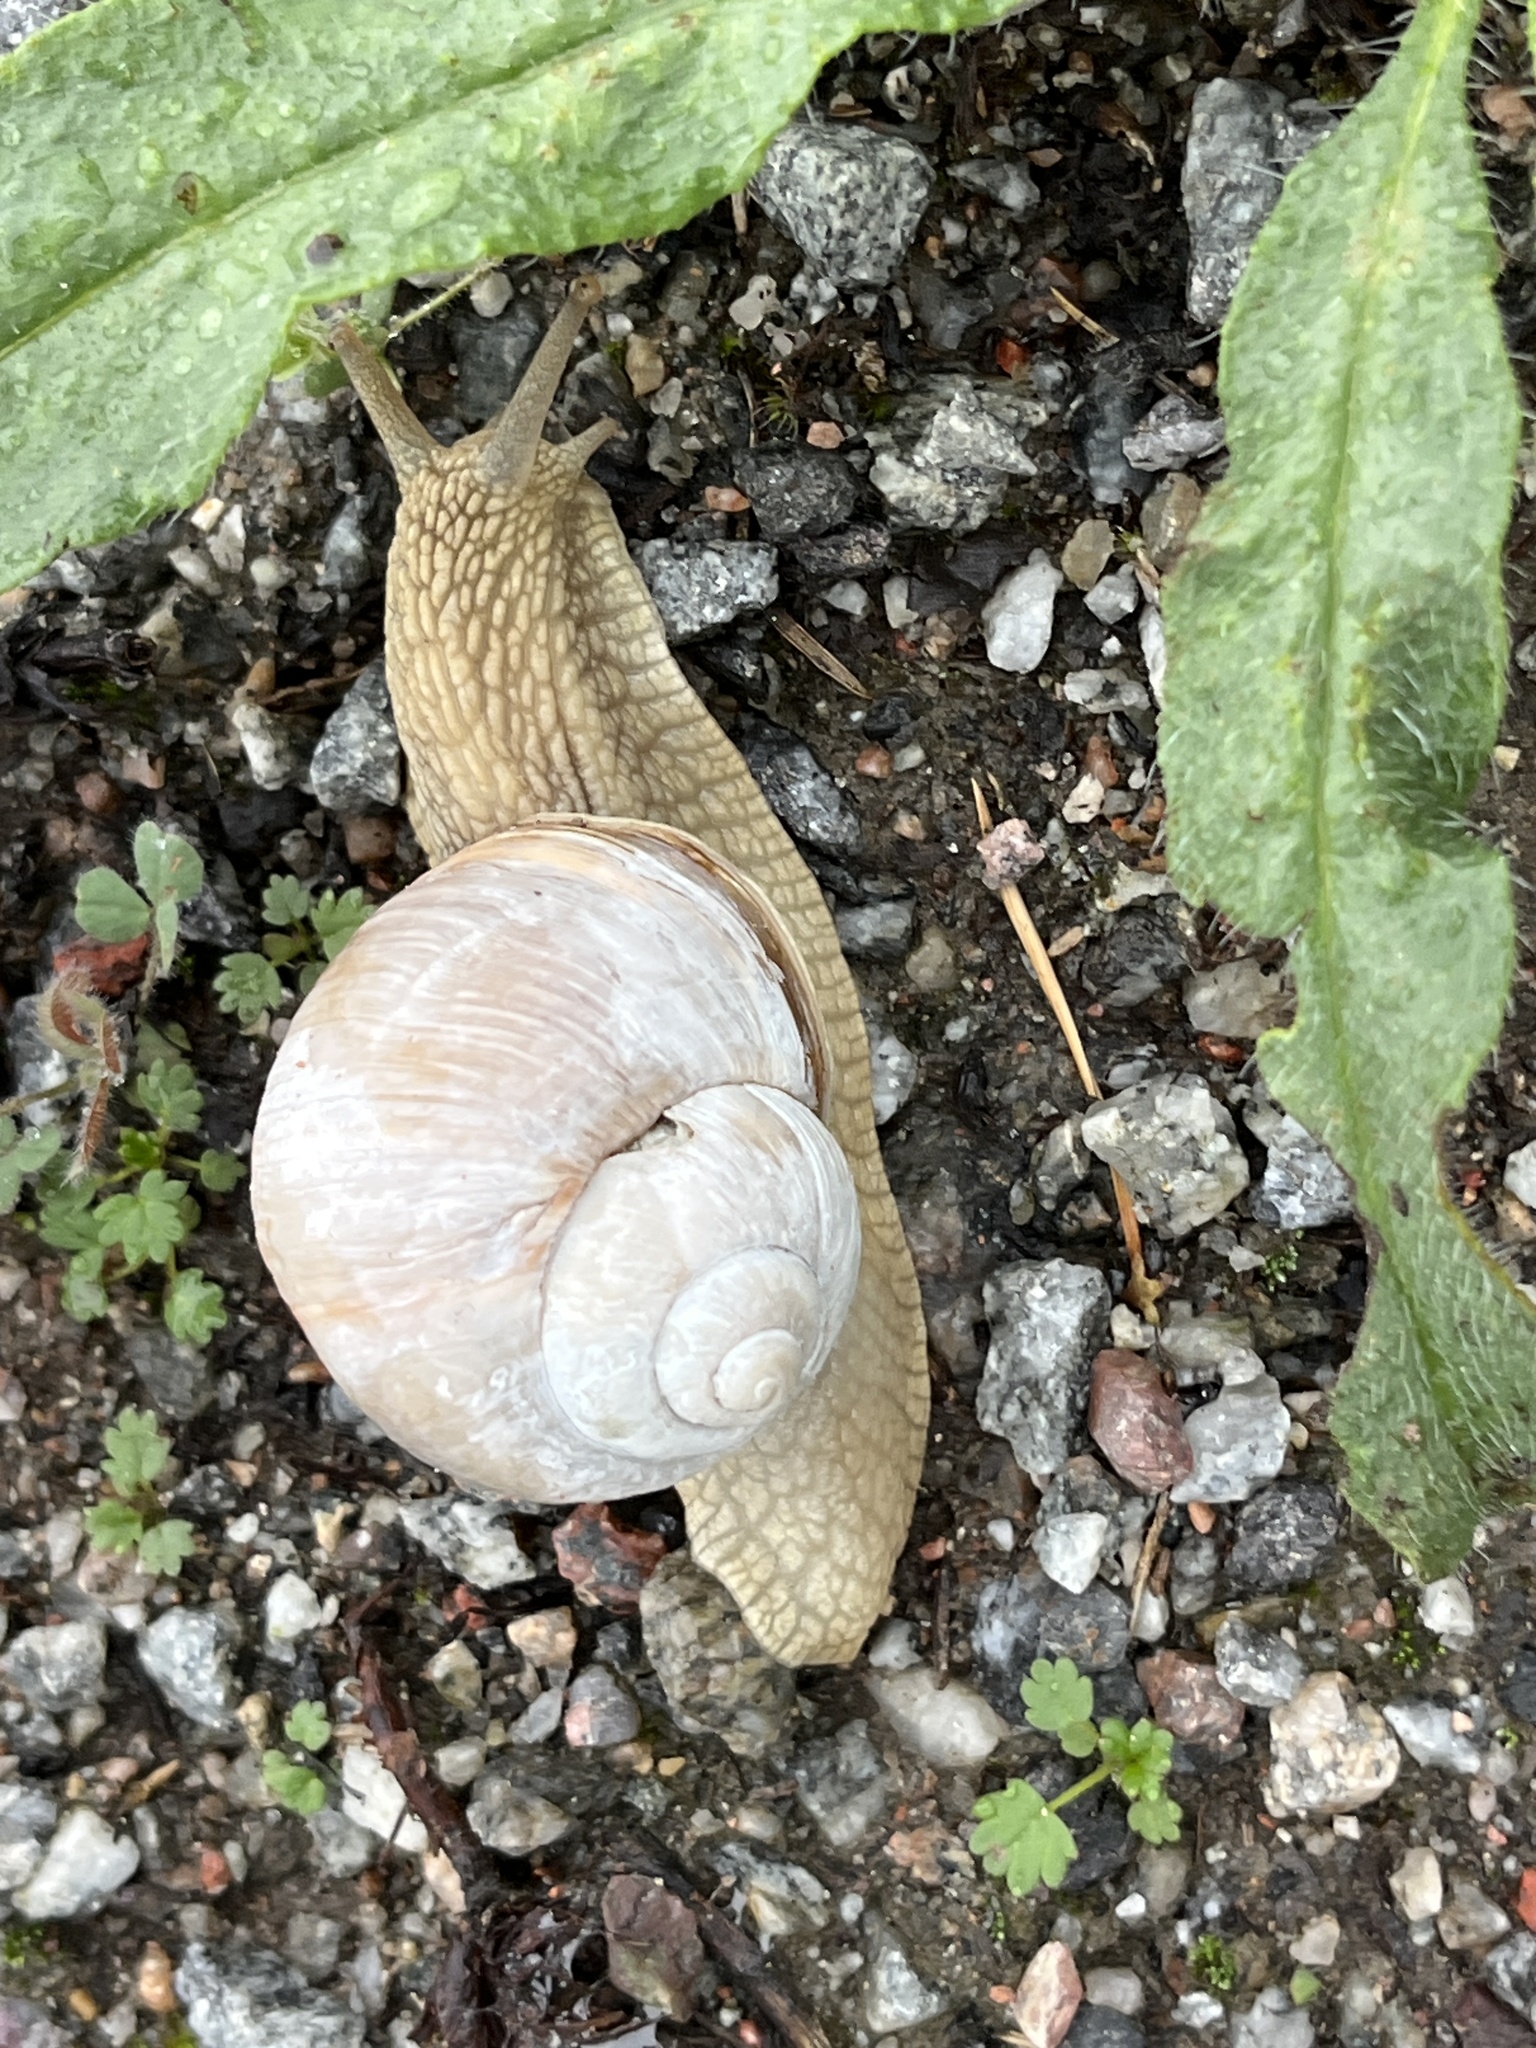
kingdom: Animalia
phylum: Mollusca
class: Gastropoda
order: Stylommatophora
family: Helicidae
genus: Helix
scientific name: Helix pomatia
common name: Roman snail
